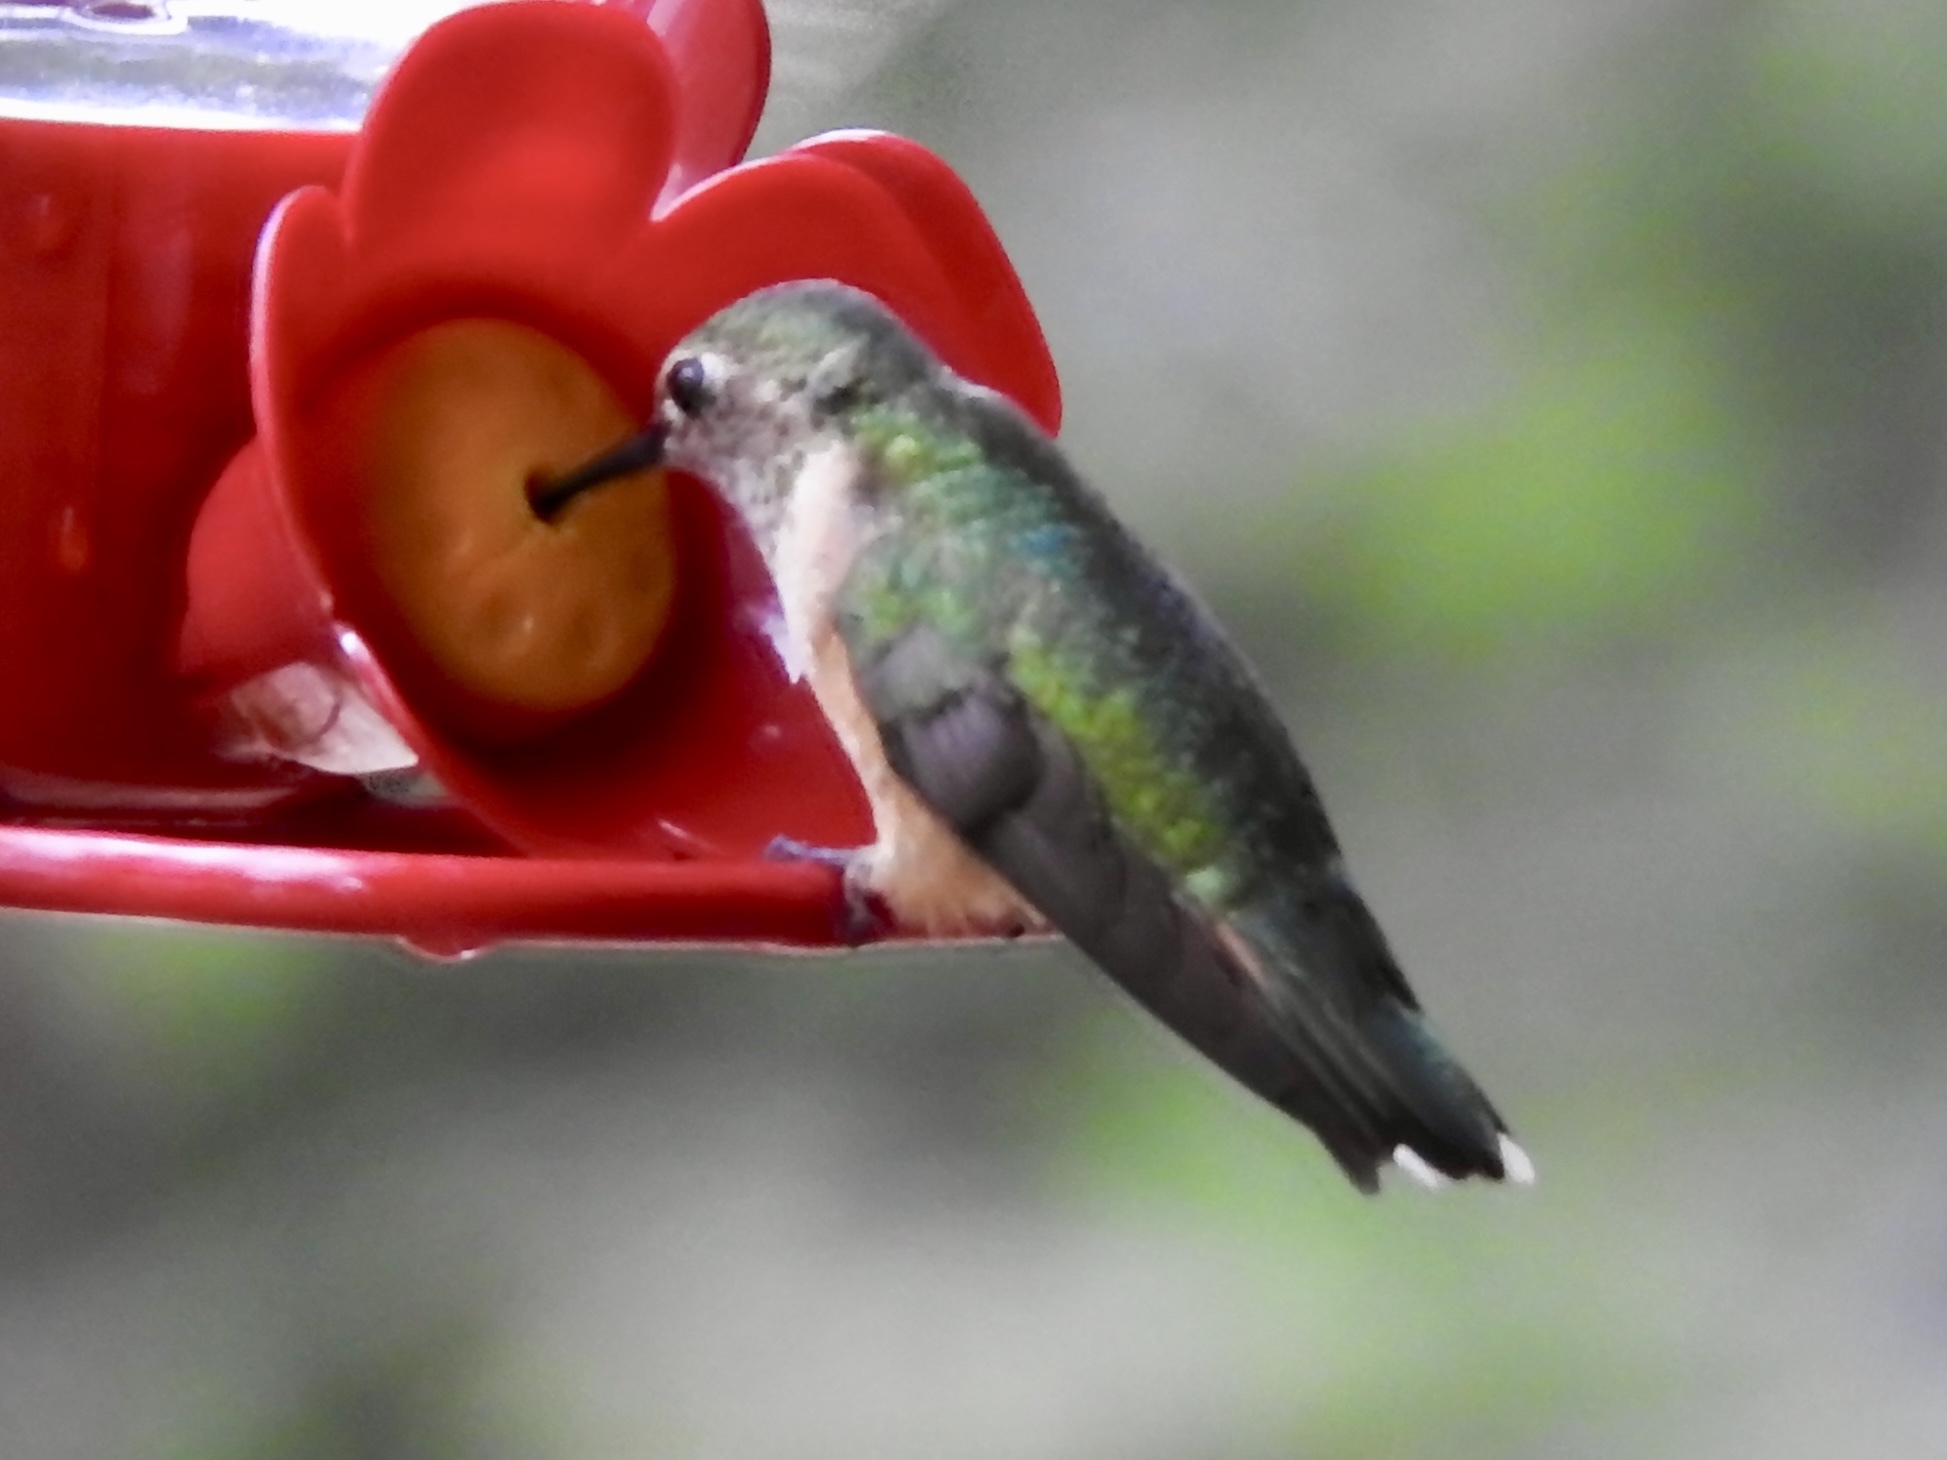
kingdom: Animalia
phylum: Chordata
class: Aves
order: Apodiformes
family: Trochilidae
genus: Selasphorus
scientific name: Selasphorus platycercus
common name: Broad-tailed hummingbird
